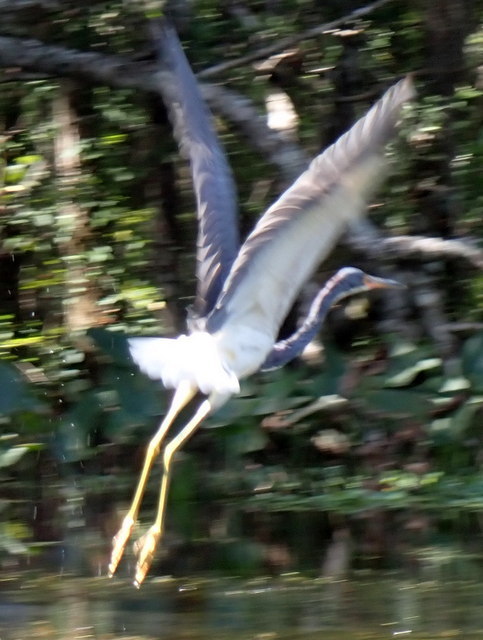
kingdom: Animalia
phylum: Chordata
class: Aves
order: Pelecaniformes
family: Ardeidae
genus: Egretta
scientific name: Egretta tricolor
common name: Tricolored heron
